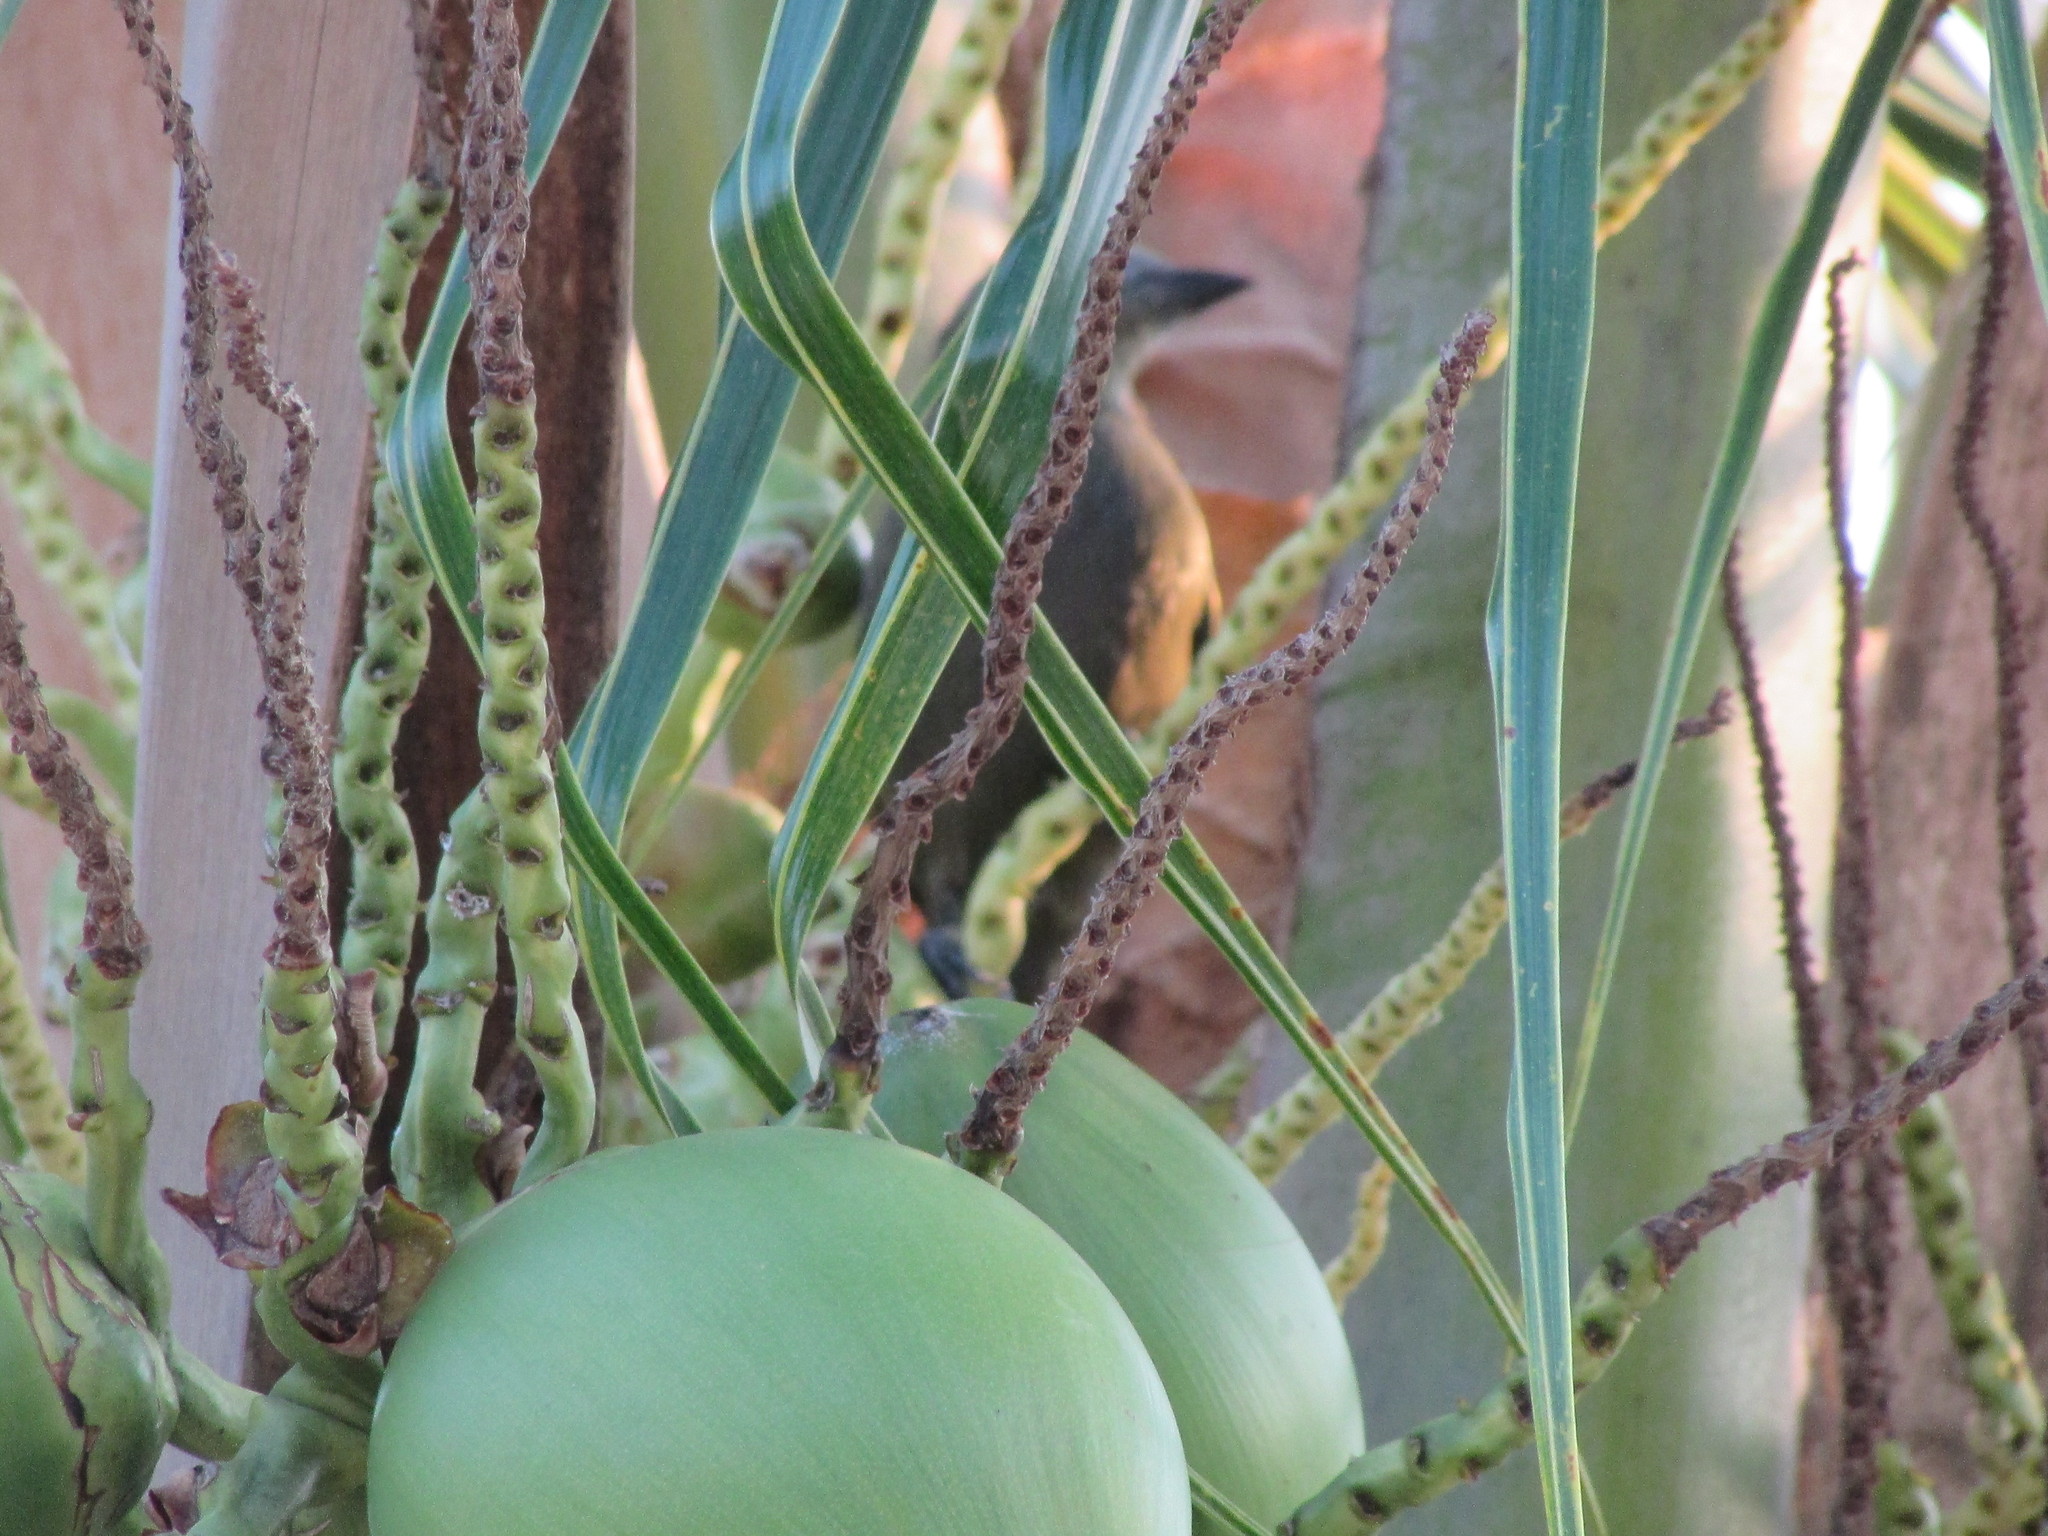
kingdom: Animalia
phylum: Chordata
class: Aves
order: Passeriformes
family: Thraupidae
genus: Thraupis
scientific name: Thraupis palmarum
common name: Palm tanager
